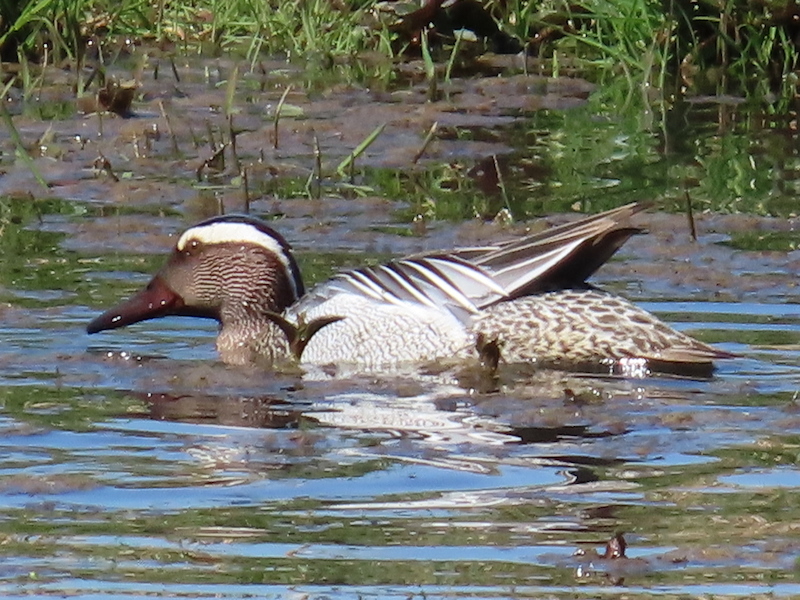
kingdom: Animalia
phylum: Chordata
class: Aves
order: Anseriformes
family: Anatidae
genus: Spatula
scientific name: Spatula querquedula
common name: Garganey
